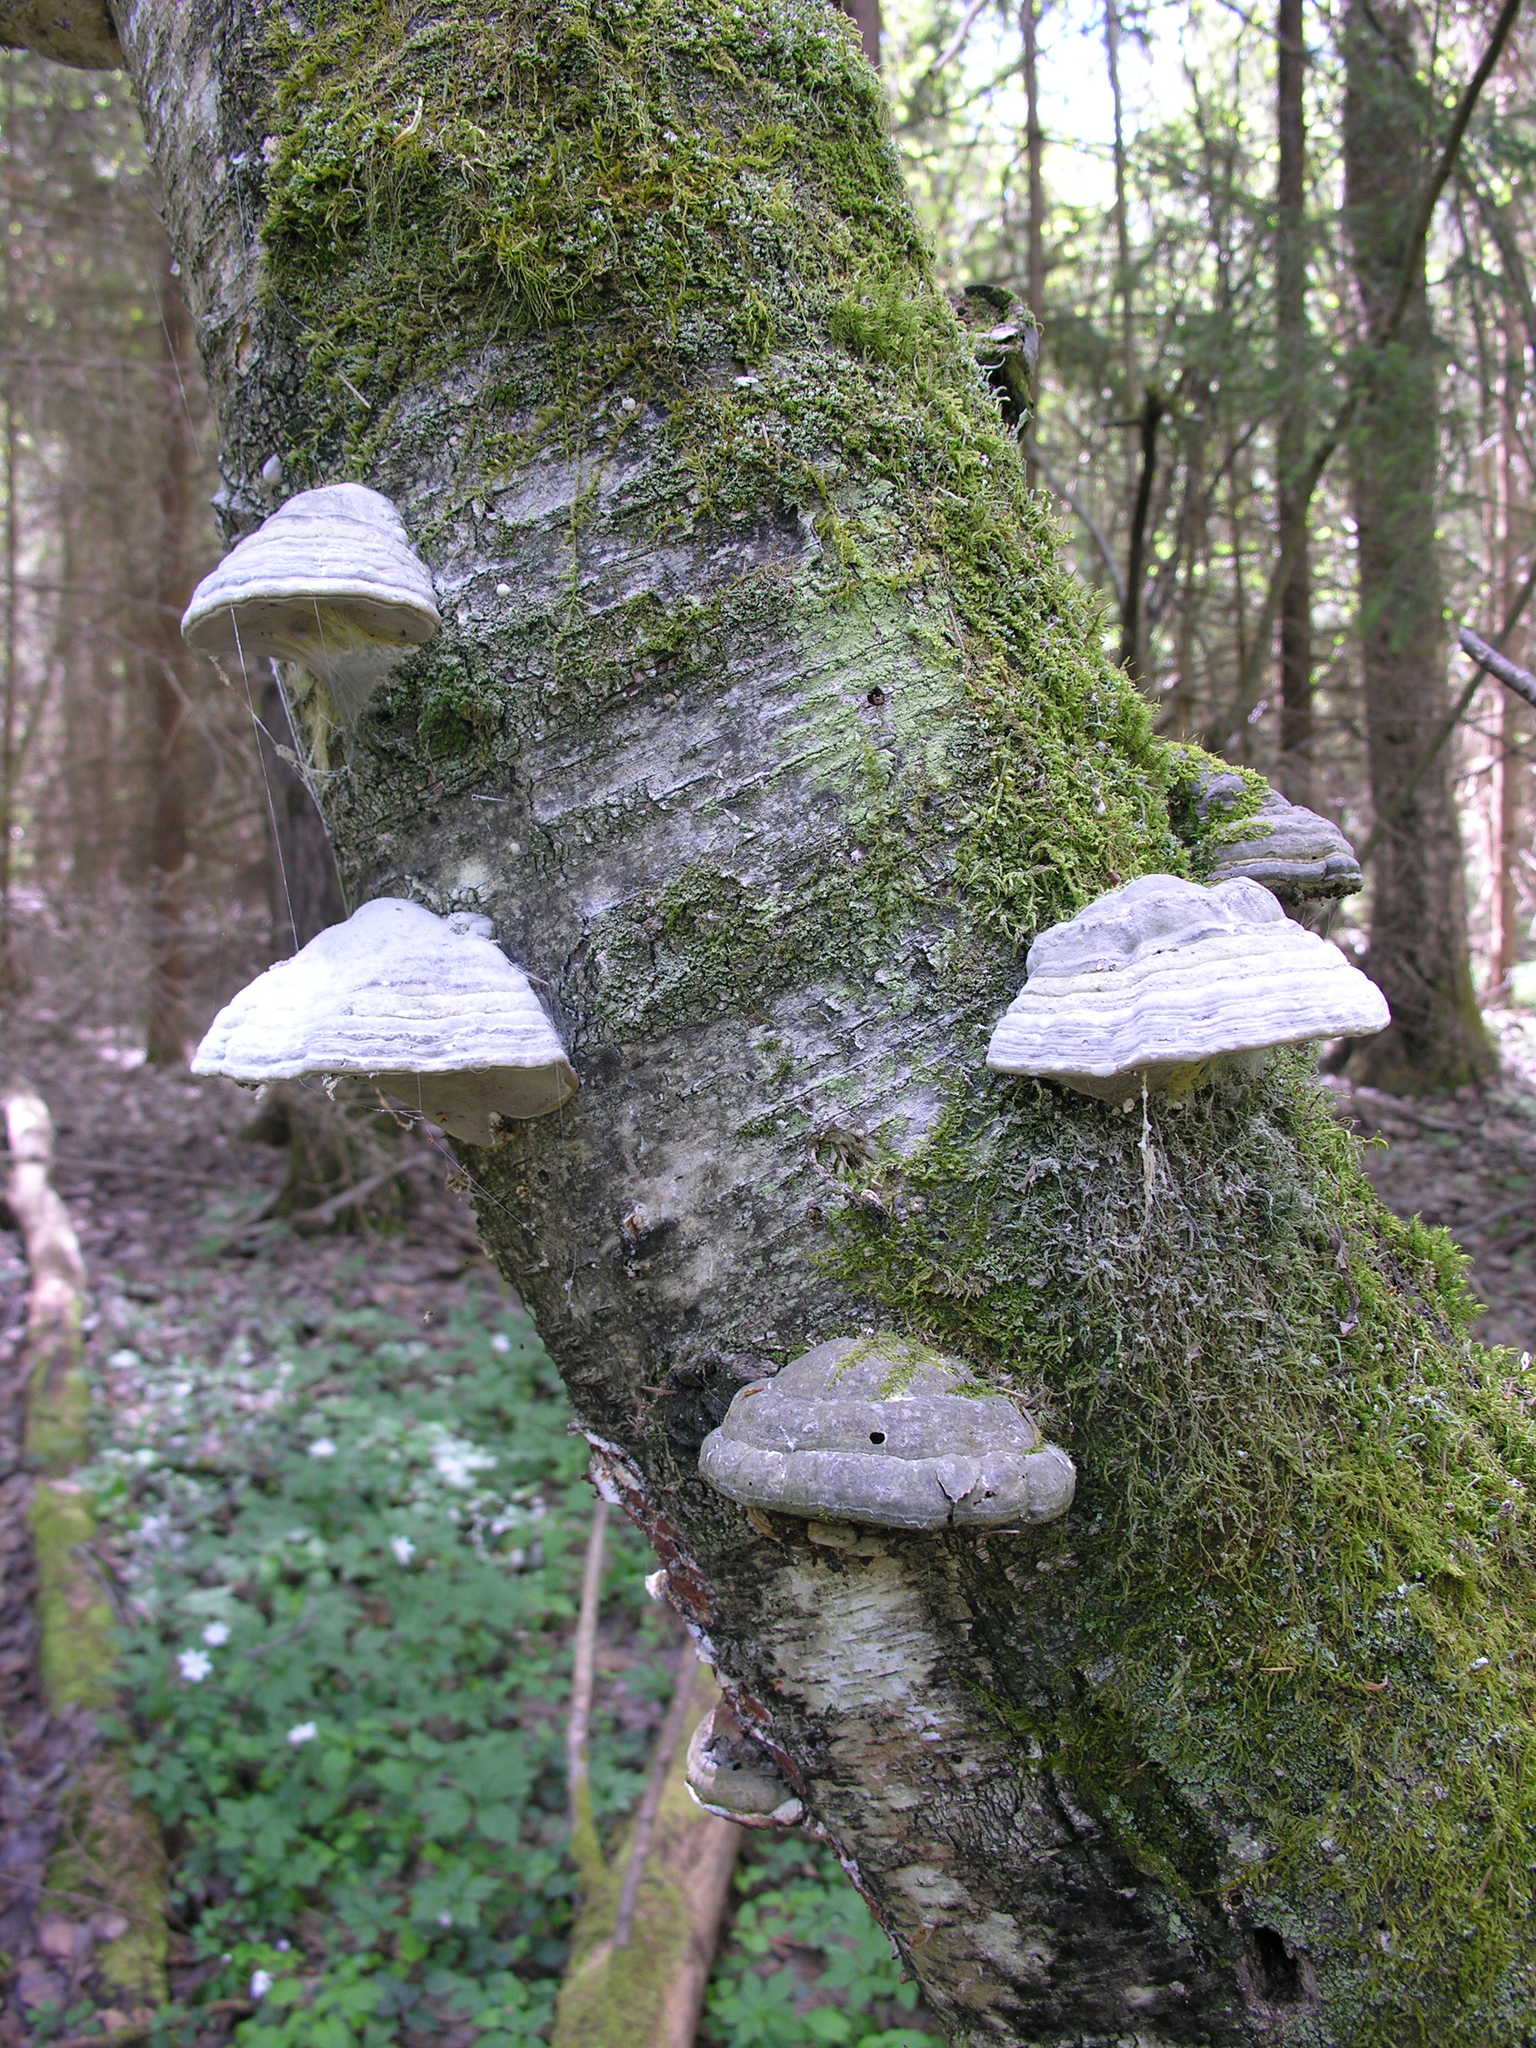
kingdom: Fungi
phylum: Basidiomycota
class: Agaricomycetes
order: Polyporales
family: Polyporaceae
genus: Fomes
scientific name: Fomes fomentarius
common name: Hoof fungus
